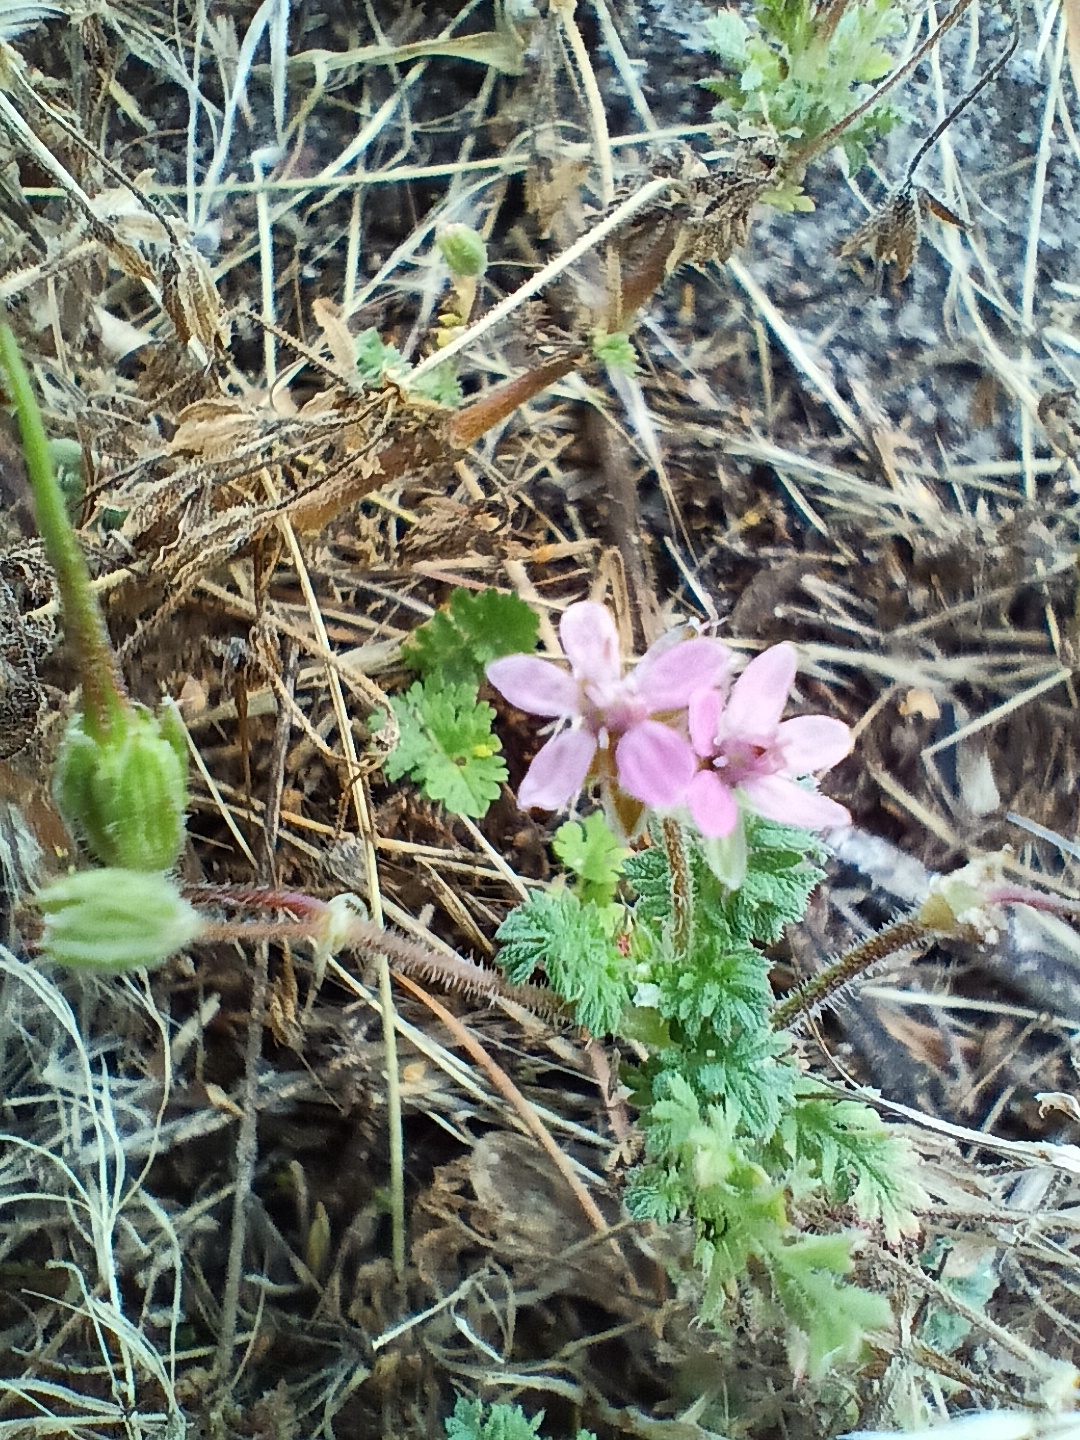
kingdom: Plantae
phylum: Tracheophyta
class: Magnoliopsida
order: Geraniales
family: Geraniaceae
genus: Erodium
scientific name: Erodium cicutarium
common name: Common stork's-bill
